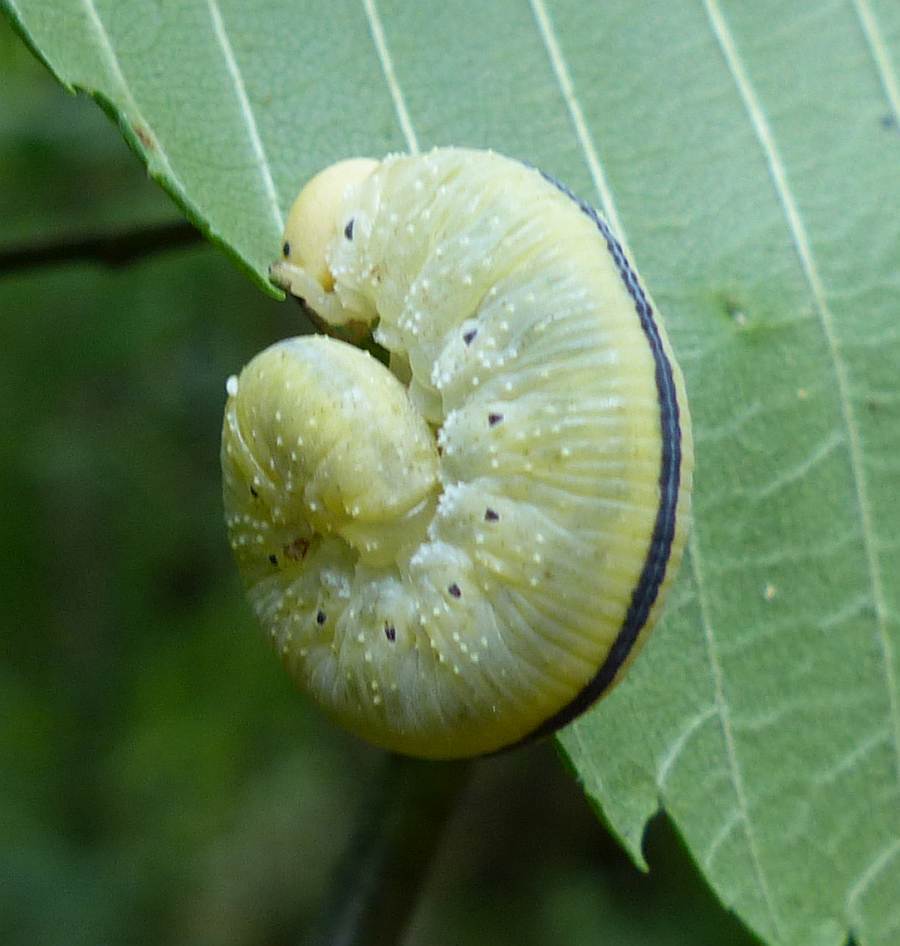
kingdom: Animalia
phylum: Arthropoda
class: Insecta
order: Hymenoptera
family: Cimbicidae
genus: Cimbex
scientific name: Cimbex americana
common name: Elm sawfly
